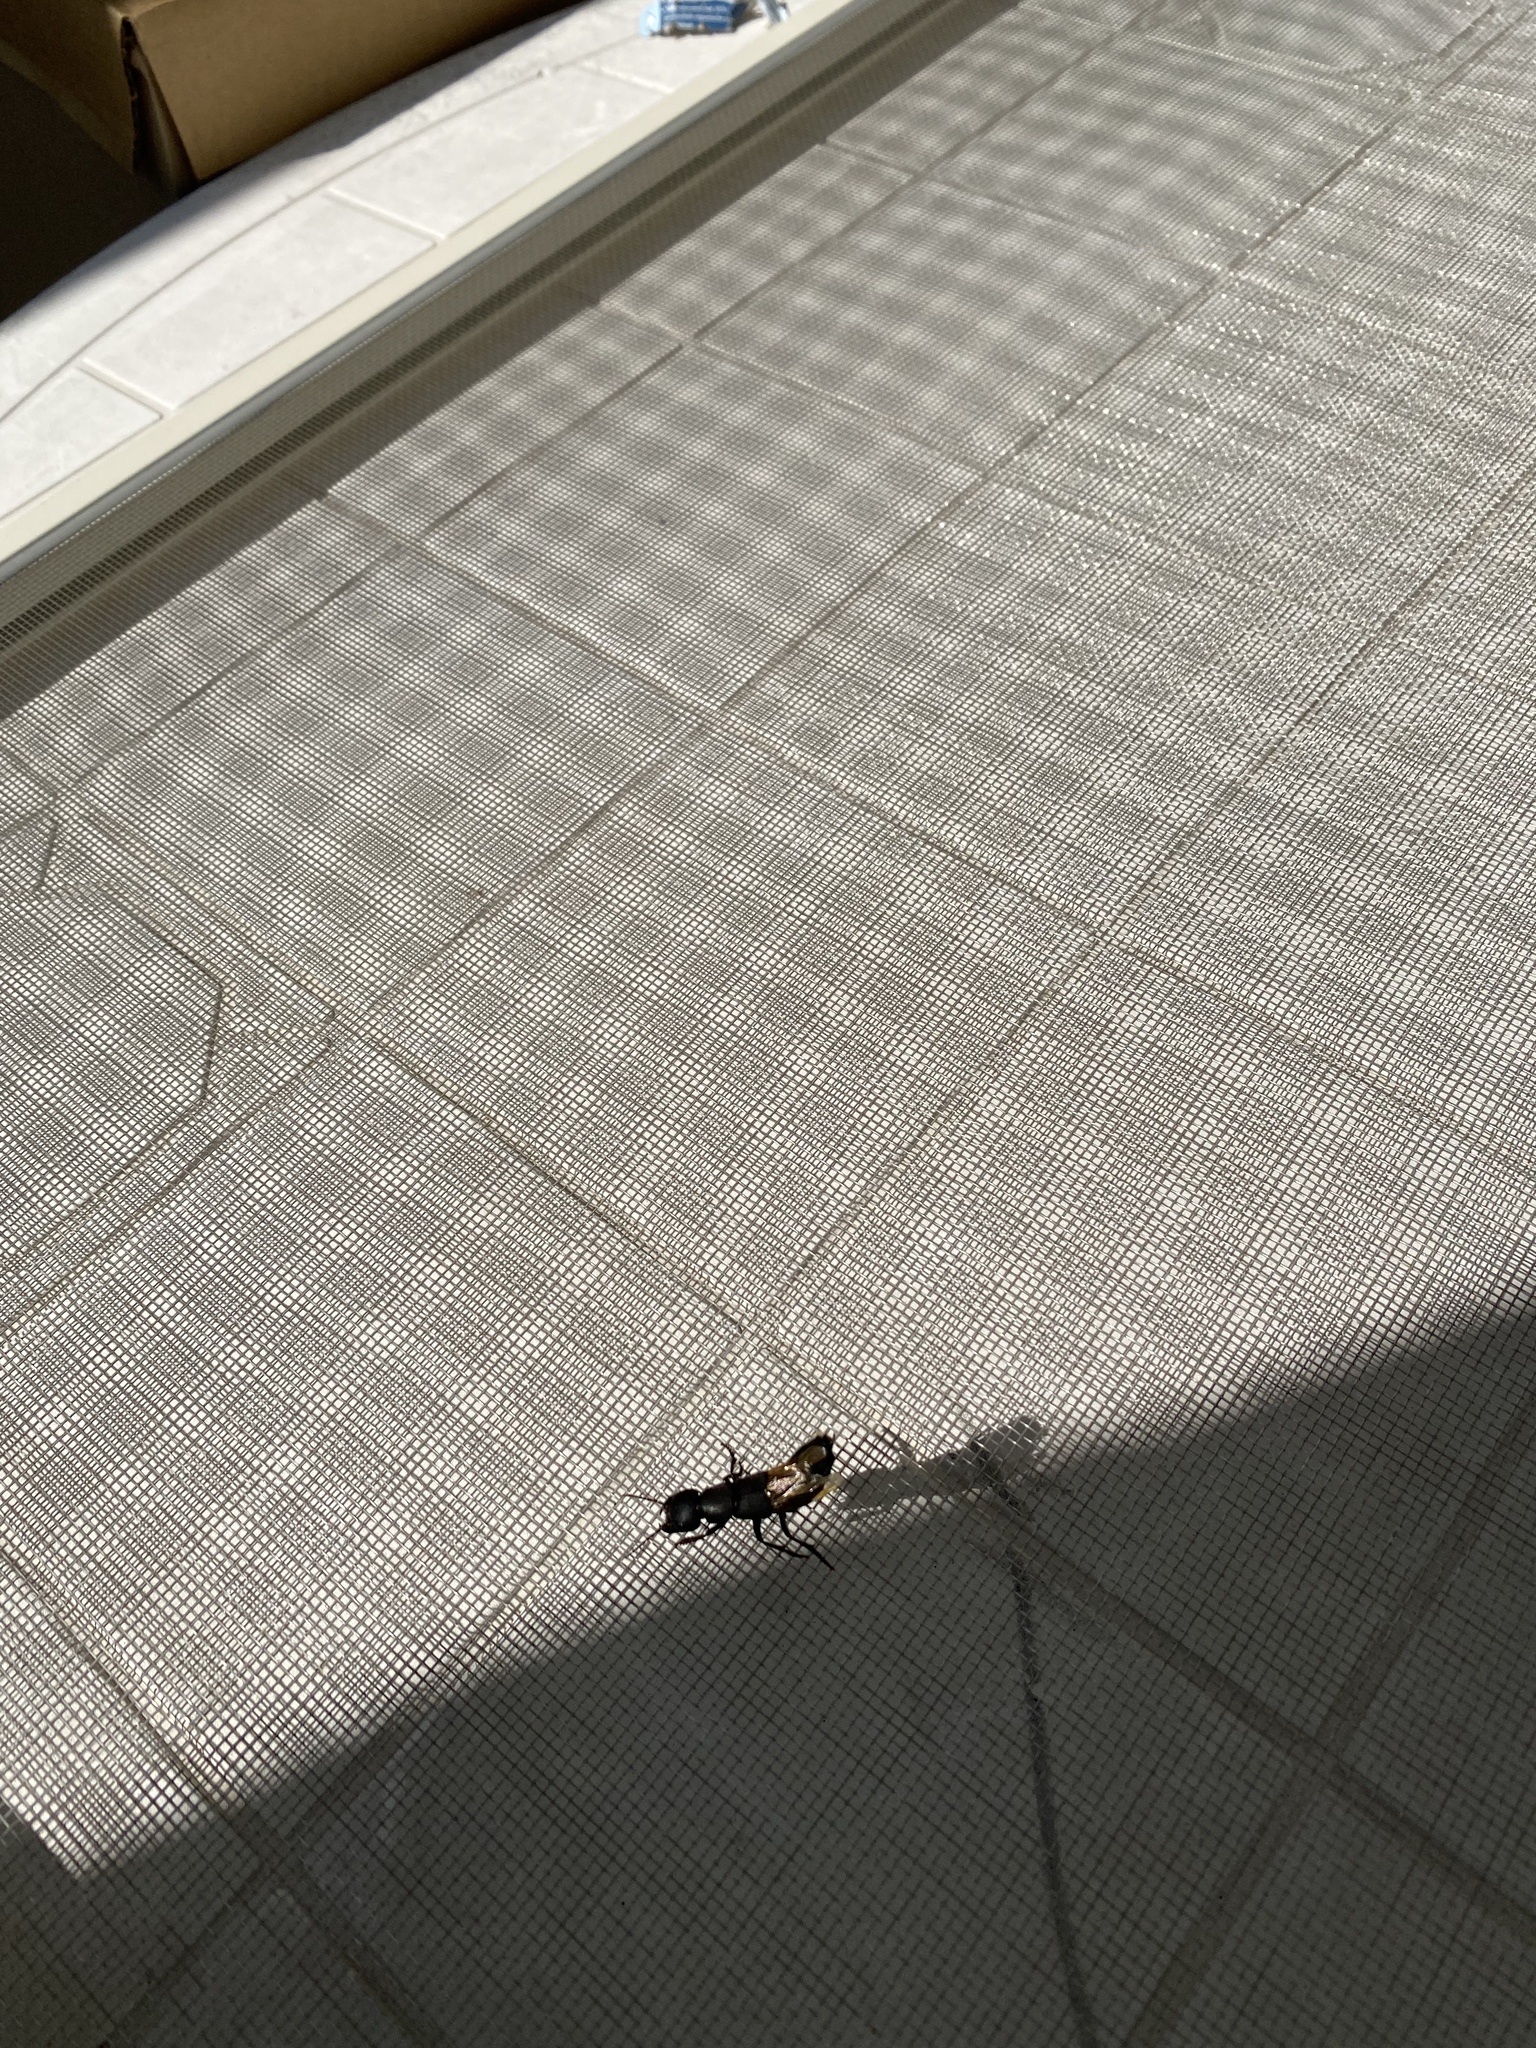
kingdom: Animalia
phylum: Arthropoda
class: Insecta
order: Coleoptera
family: Staphylinidae
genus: Ocypus
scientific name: Ocypus olens
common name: Devil's coach-horse
